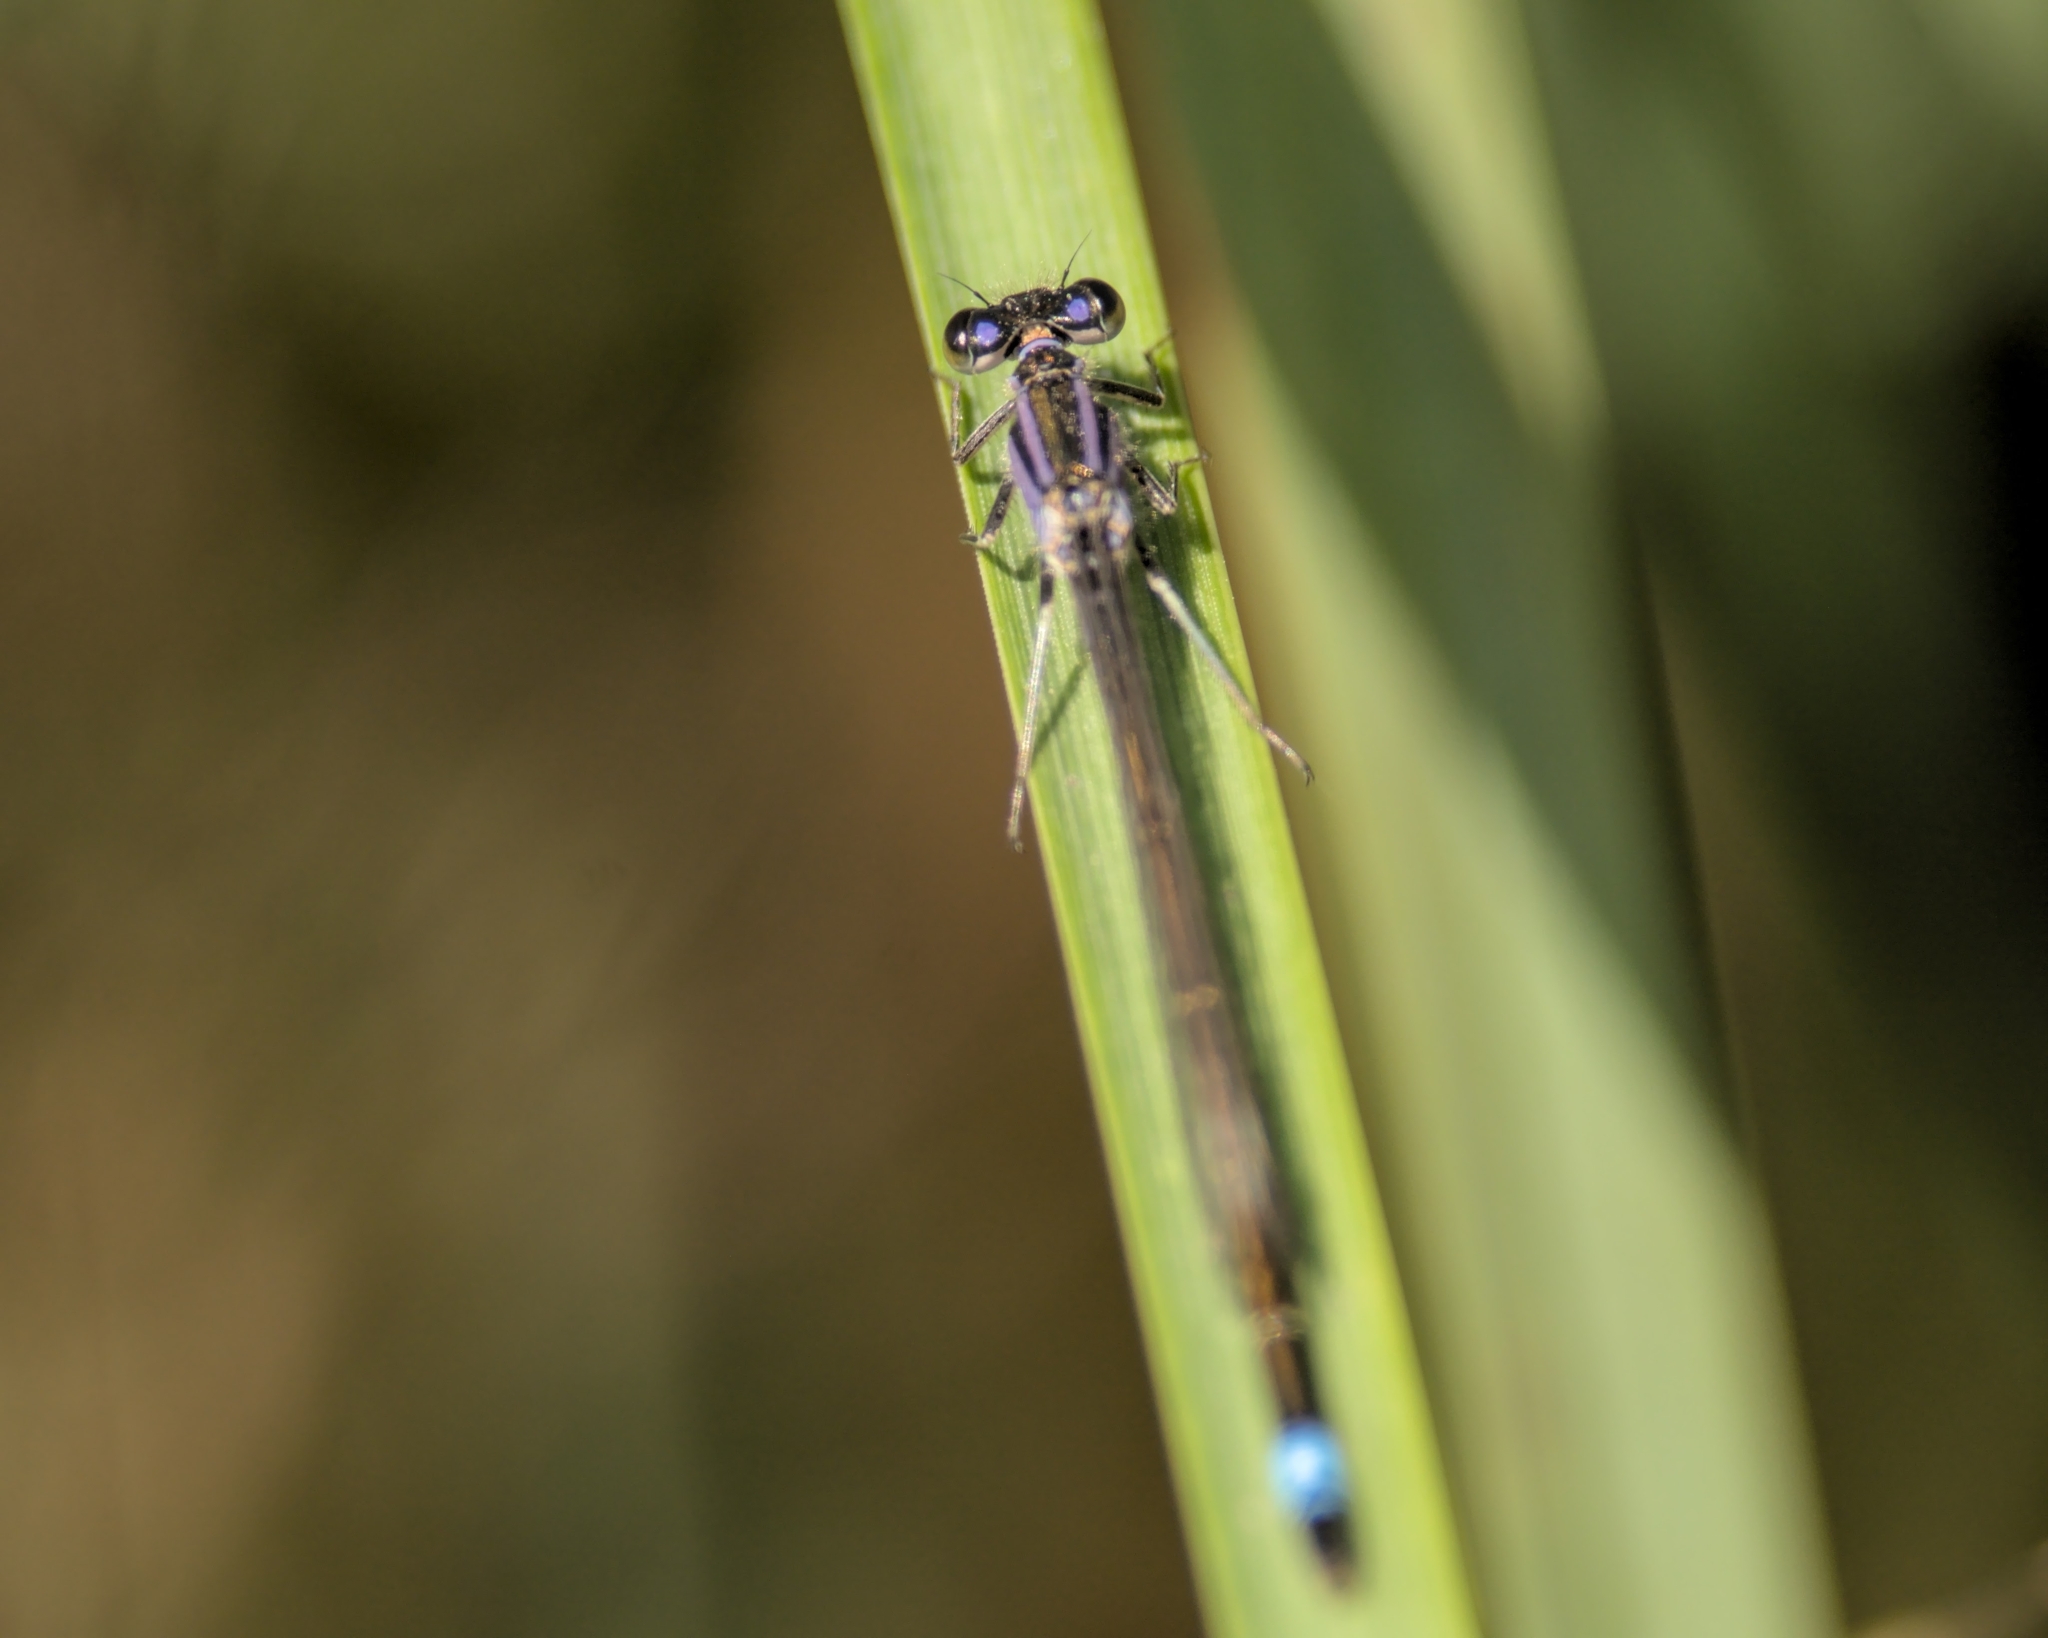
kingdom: Animalia
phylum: Arthropoda
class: Insecta
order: Odonata
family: Coenagrionidae
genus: Ischnura
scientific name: Ischnura elegans
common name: Blue-tailed damselfly
